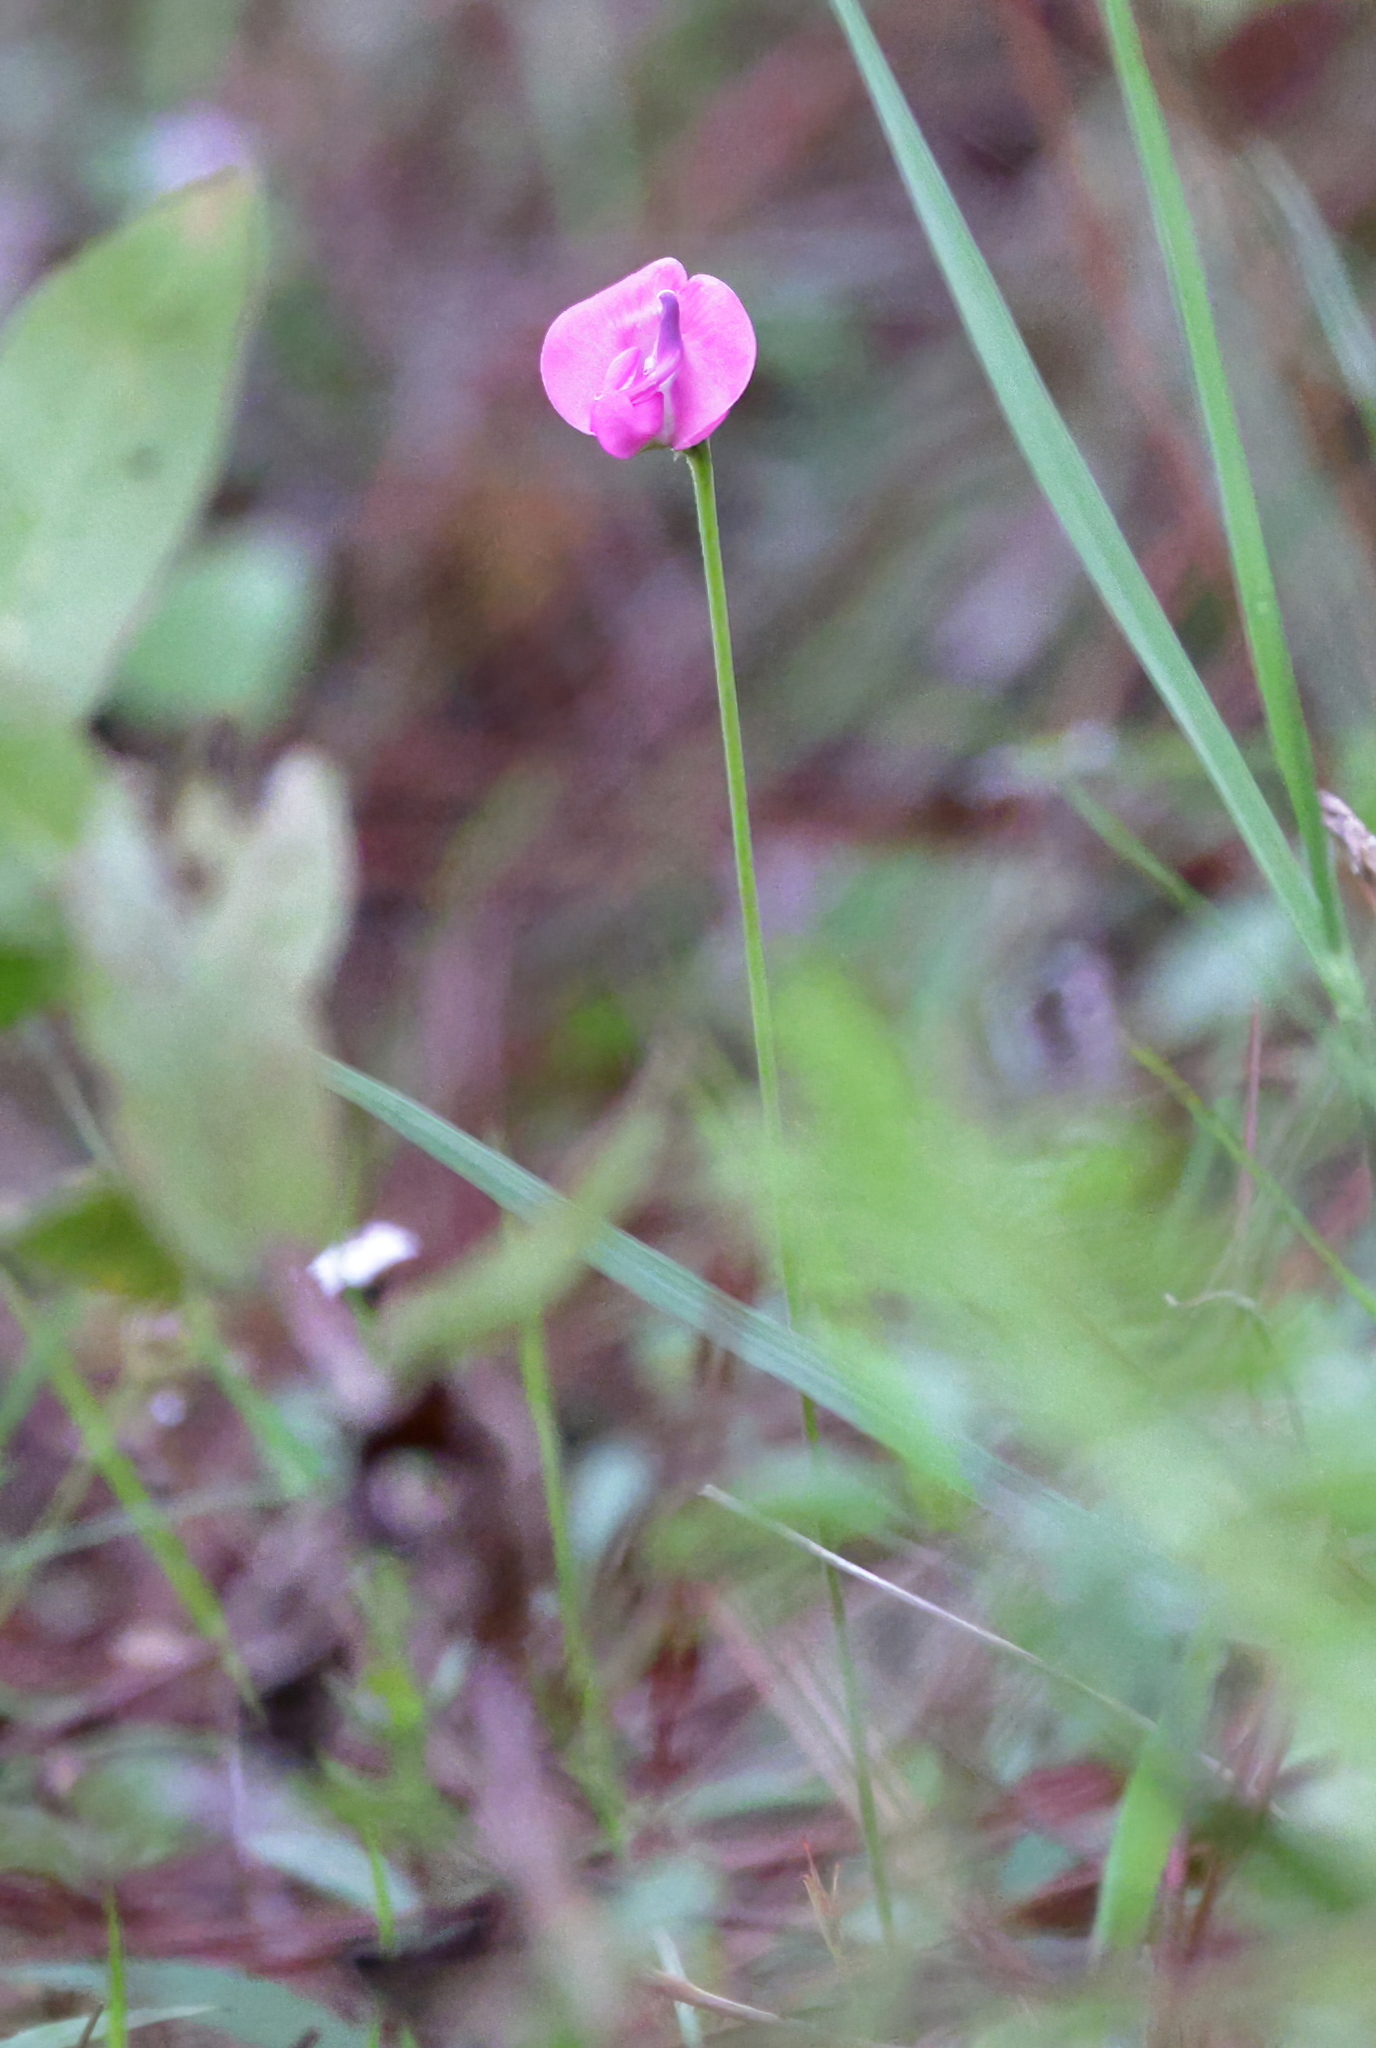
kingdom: Plantae
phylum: Tracheophyta
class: Magnoliopsida
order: Fabales
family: Fabaceae
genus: Strophostyles
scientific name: Strophostyles umbellata
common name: Perennial wild bean
